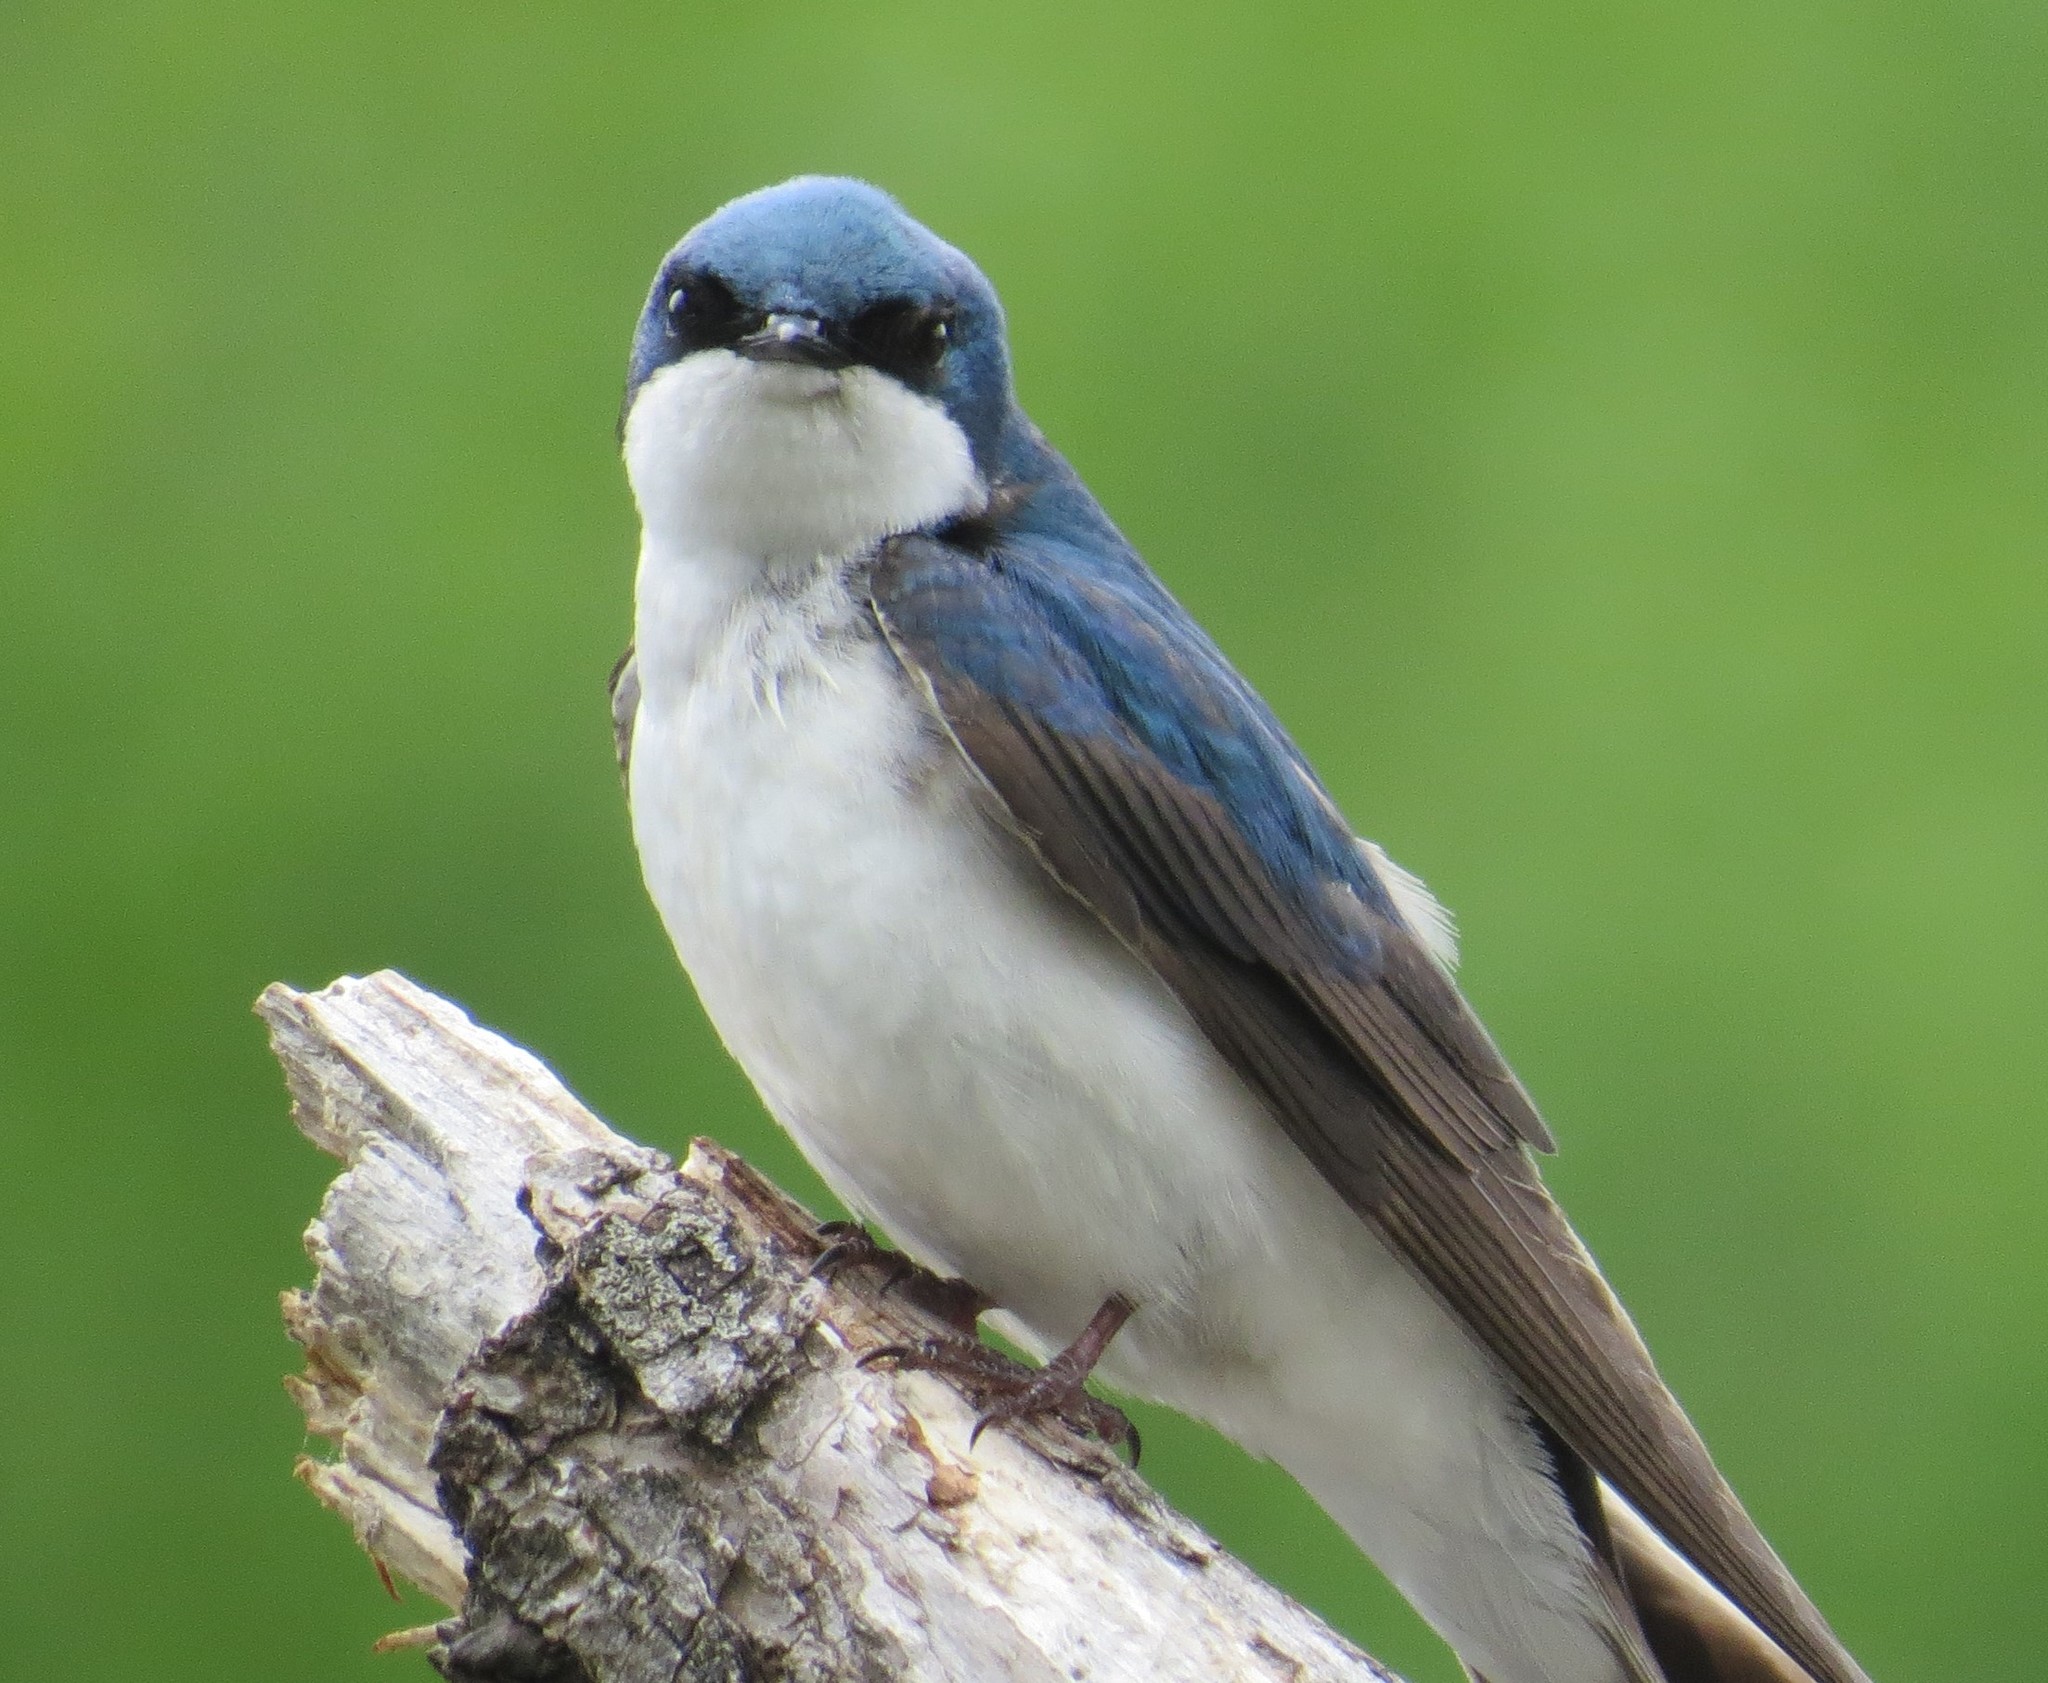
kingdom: Animalia
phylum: Chordata
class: Aves
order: Passeriformes
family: Hirundinidae
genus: Tachycineta
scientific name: Tachycineta bicolor
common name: Tree swallow
